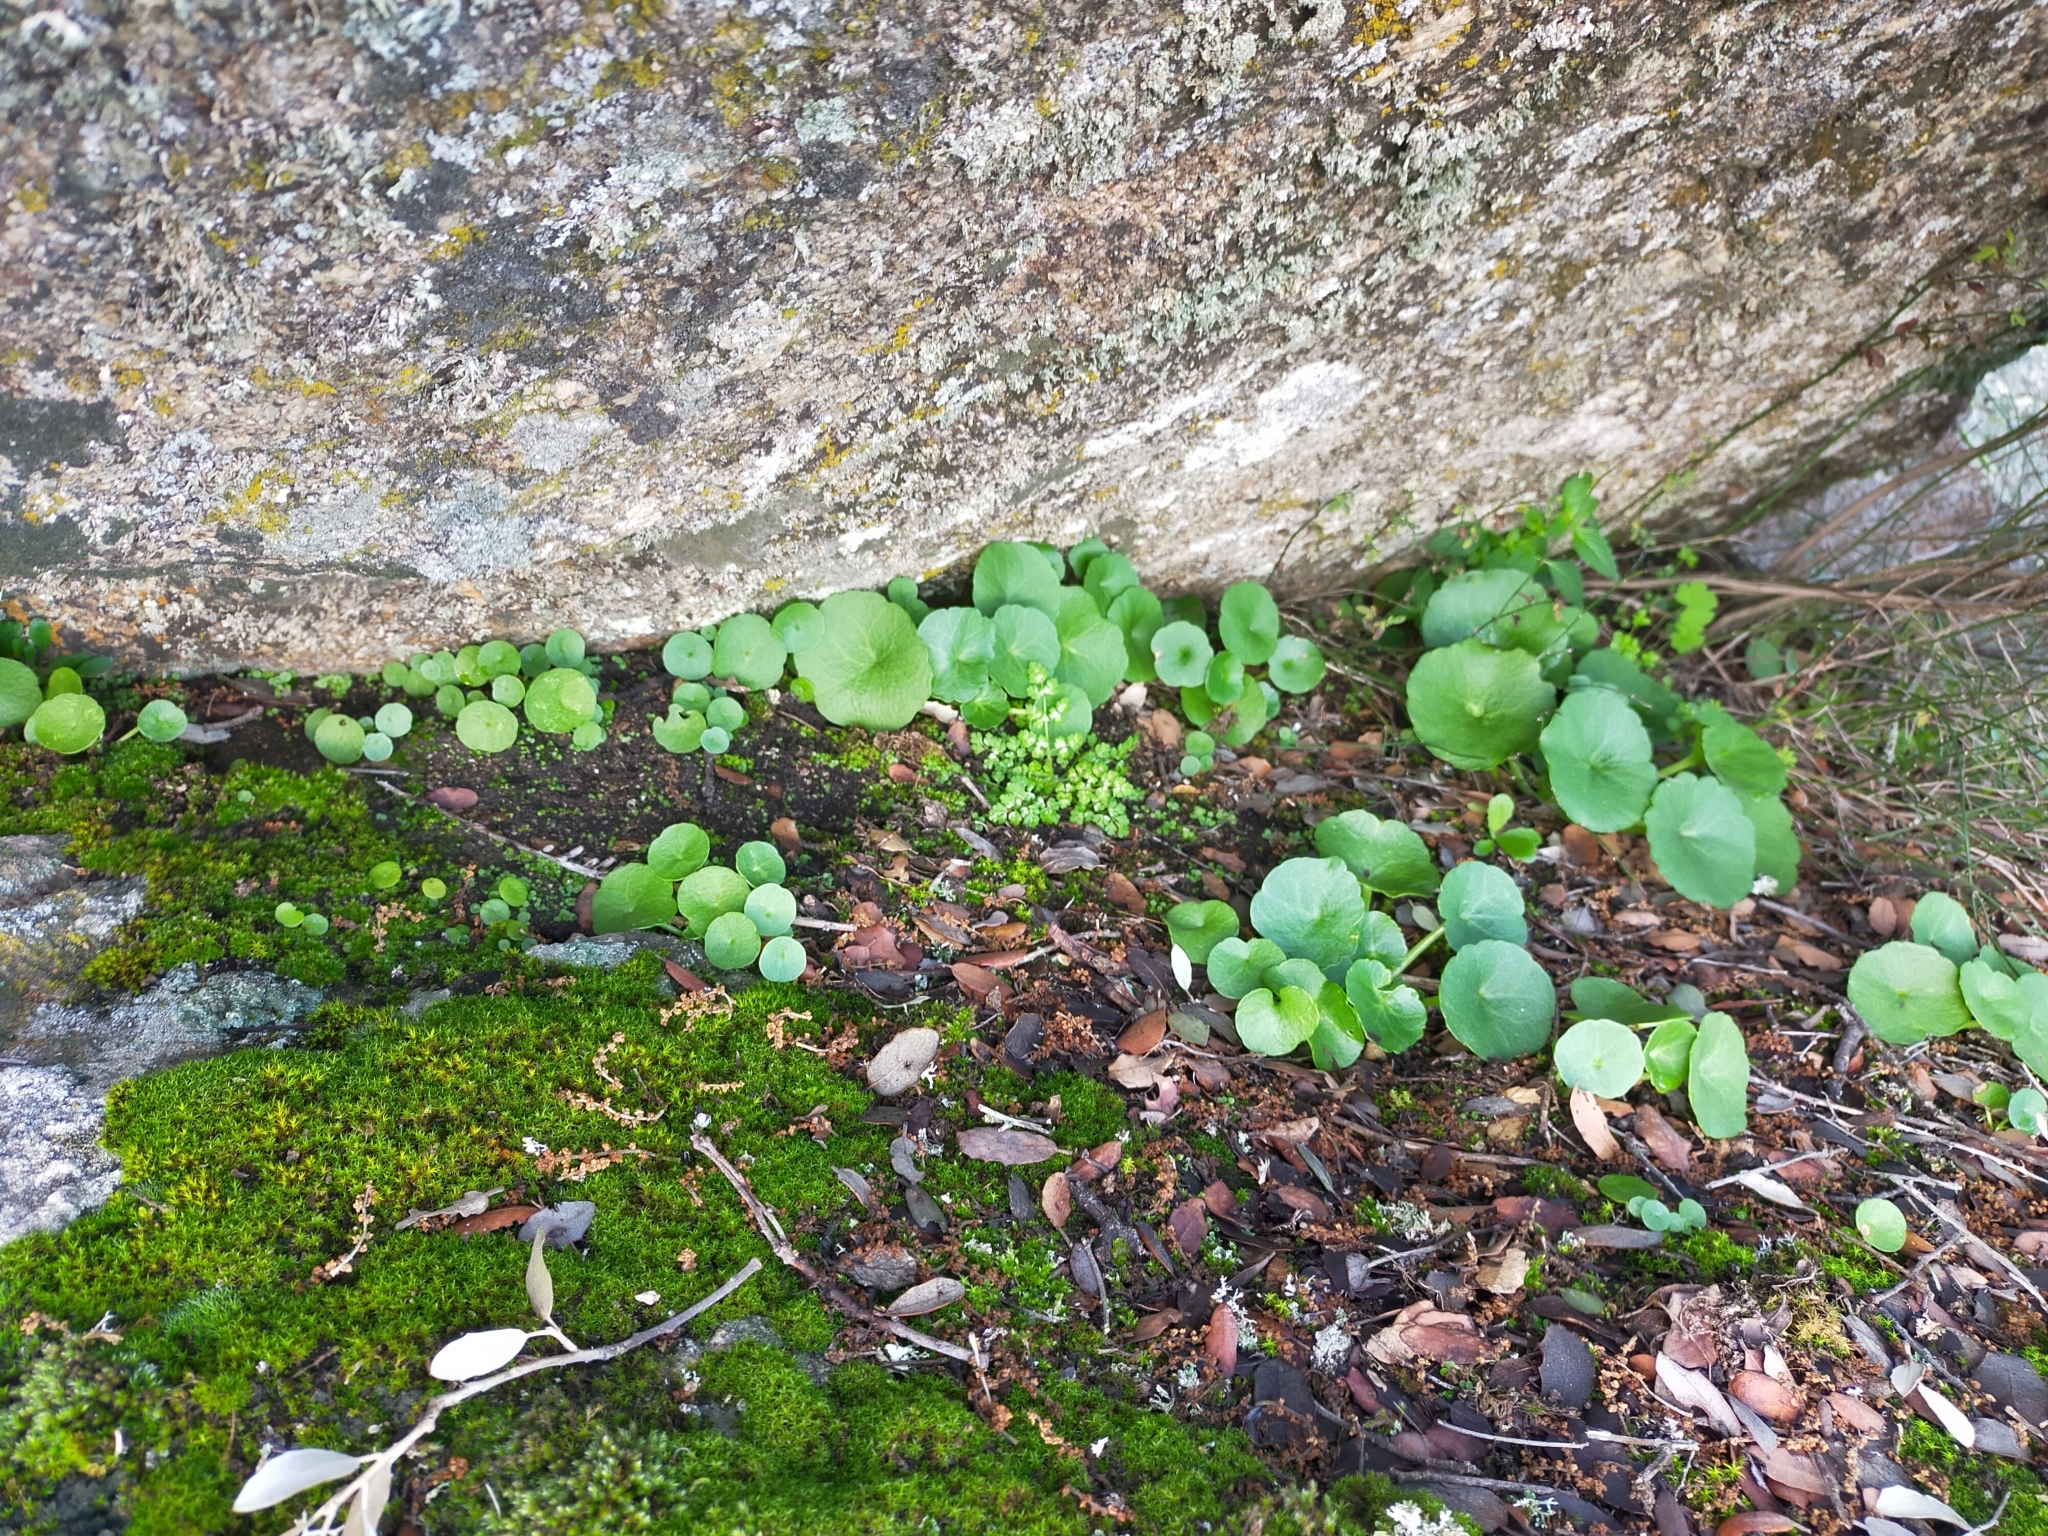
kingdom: Plantae
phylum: Tracheophyta
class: Magnoliopsida
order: Saxifragales
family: Crassulaceae
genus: Umbilicus
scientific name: Umbilicus rupestris
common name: Navelwort
